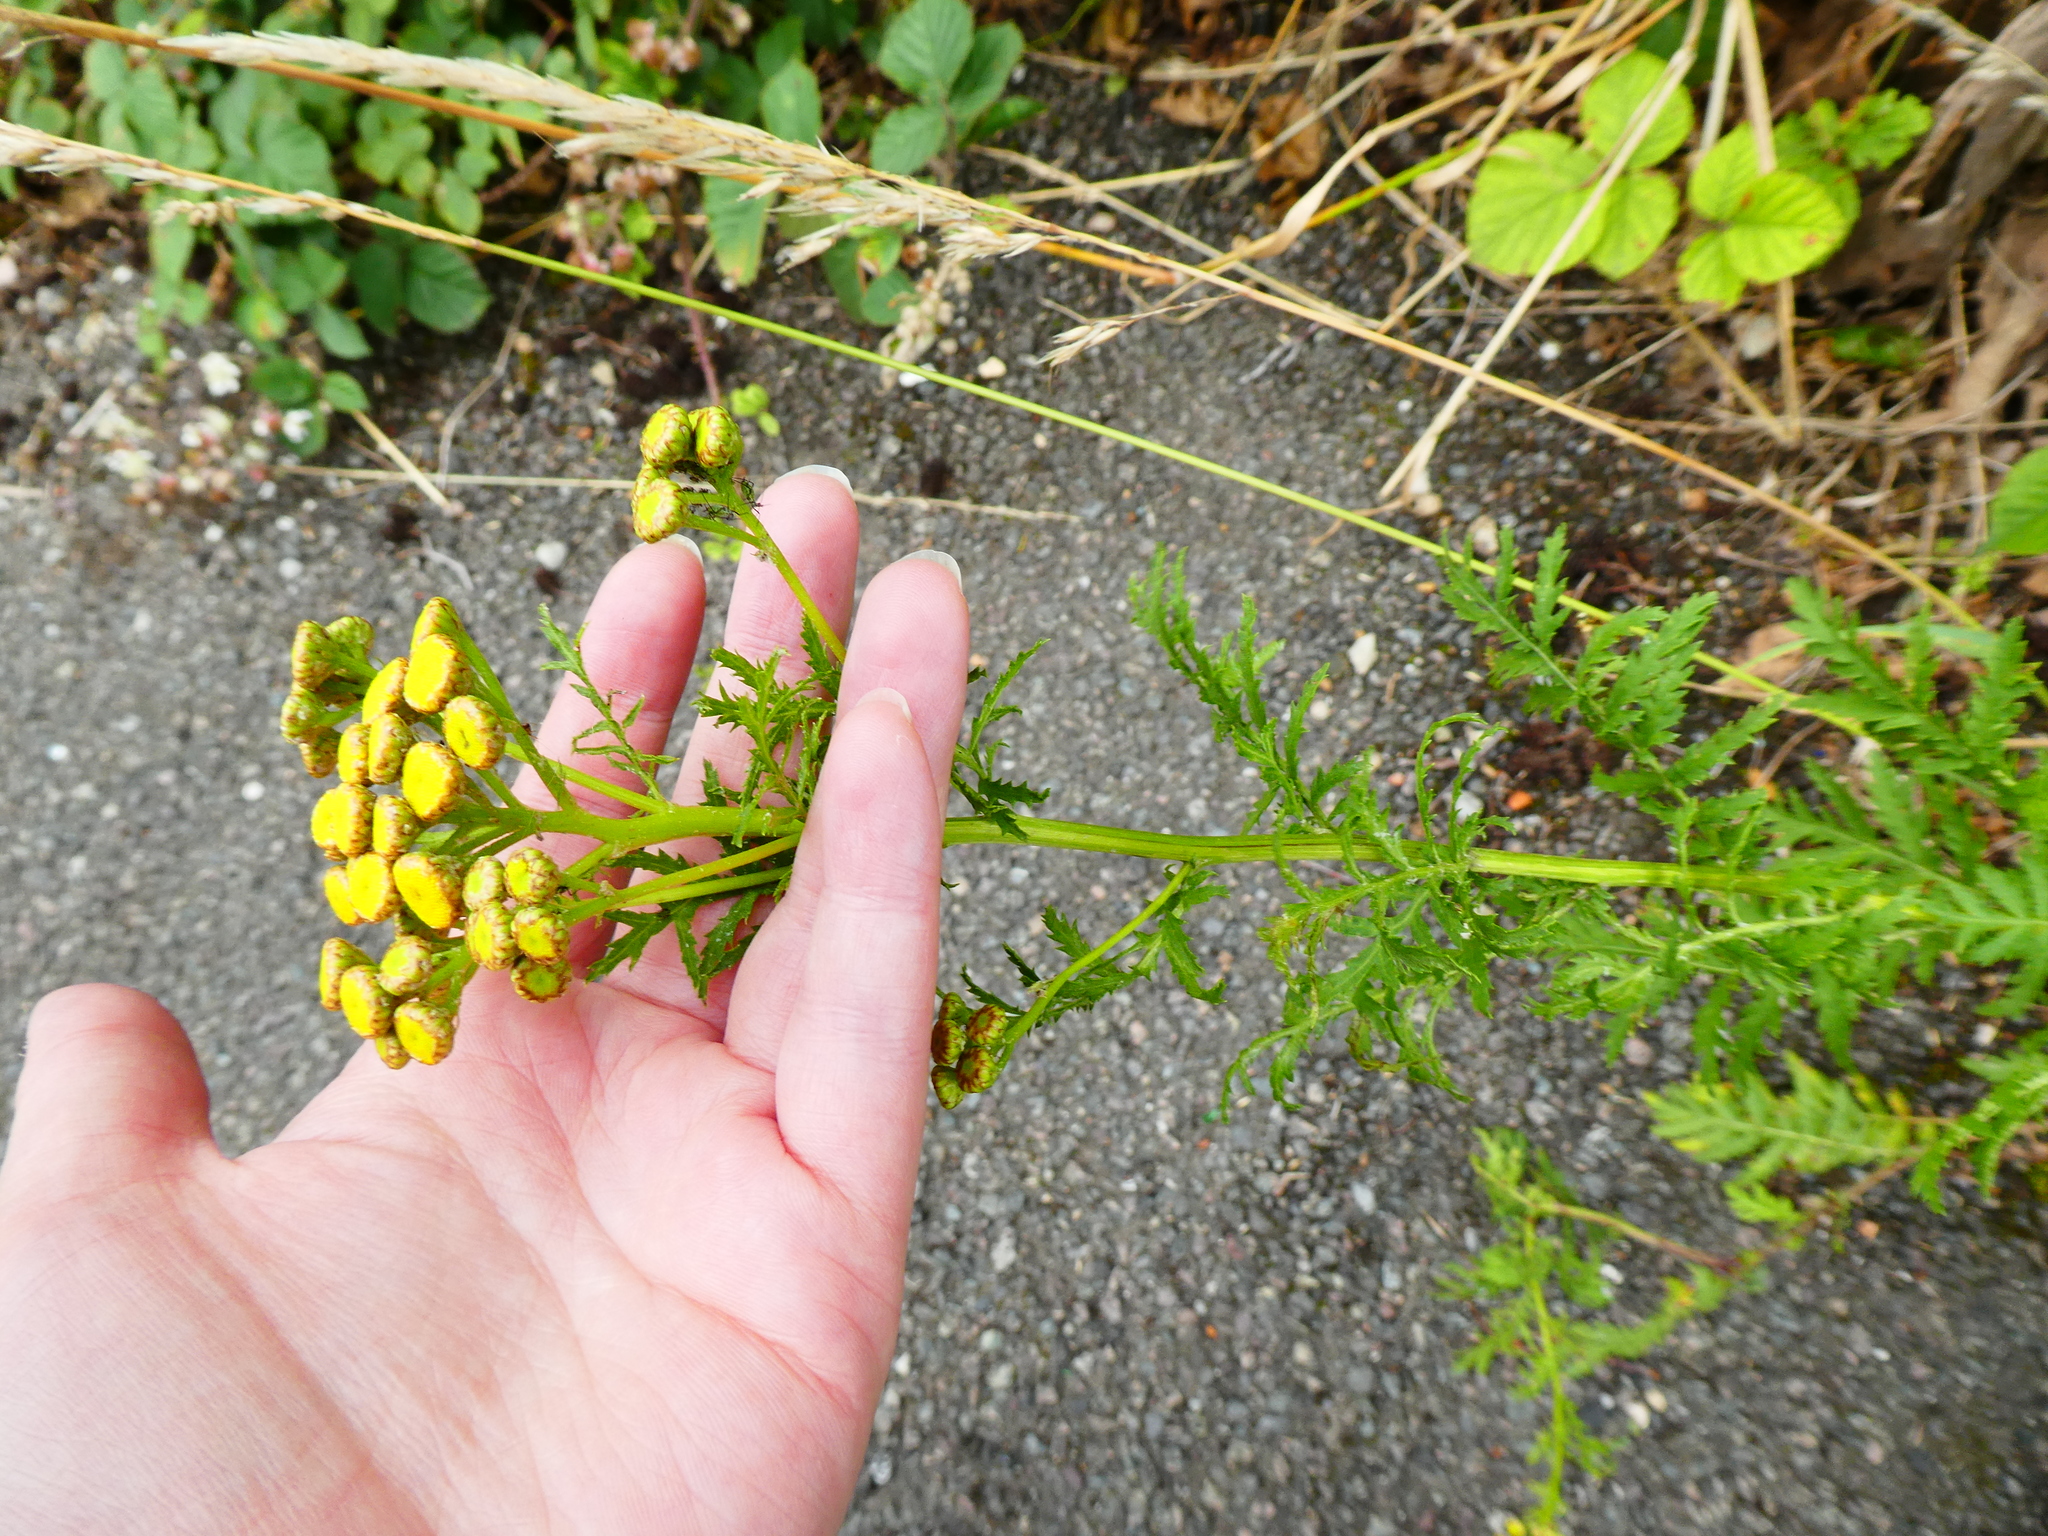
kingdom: Plantae
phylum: Tracheophyta
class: Magnoliopsida
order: Asterales
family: Asteraceae
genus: Tanacetum
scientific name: Tanacetum vulgare
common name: Common tansy
